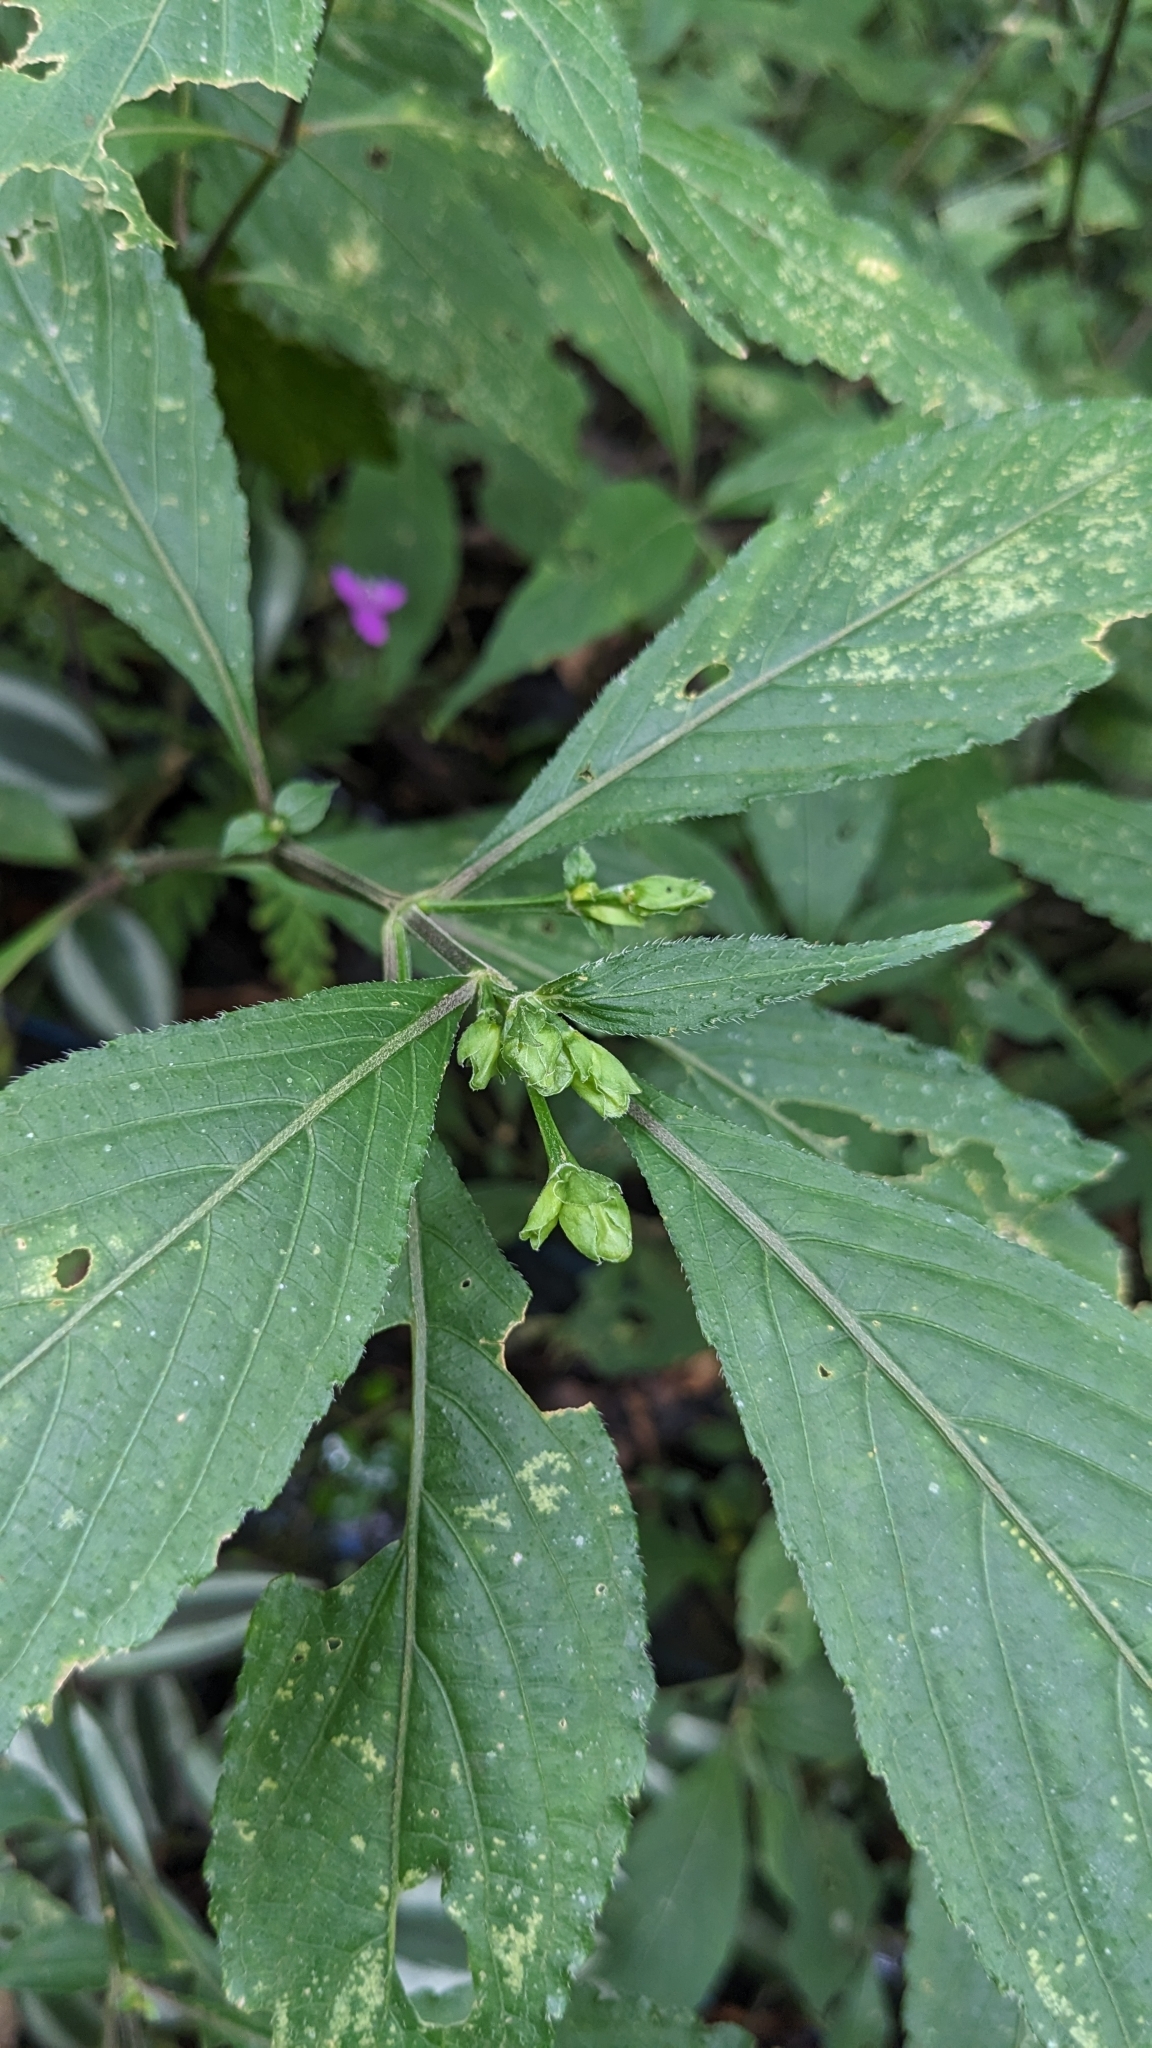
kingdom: Plantae
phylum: Tracheophyta
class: Magnoliopsida
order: Lamiales
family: Acanthaceae
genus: Strobilanthes
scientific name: Strobilanthes formosana
